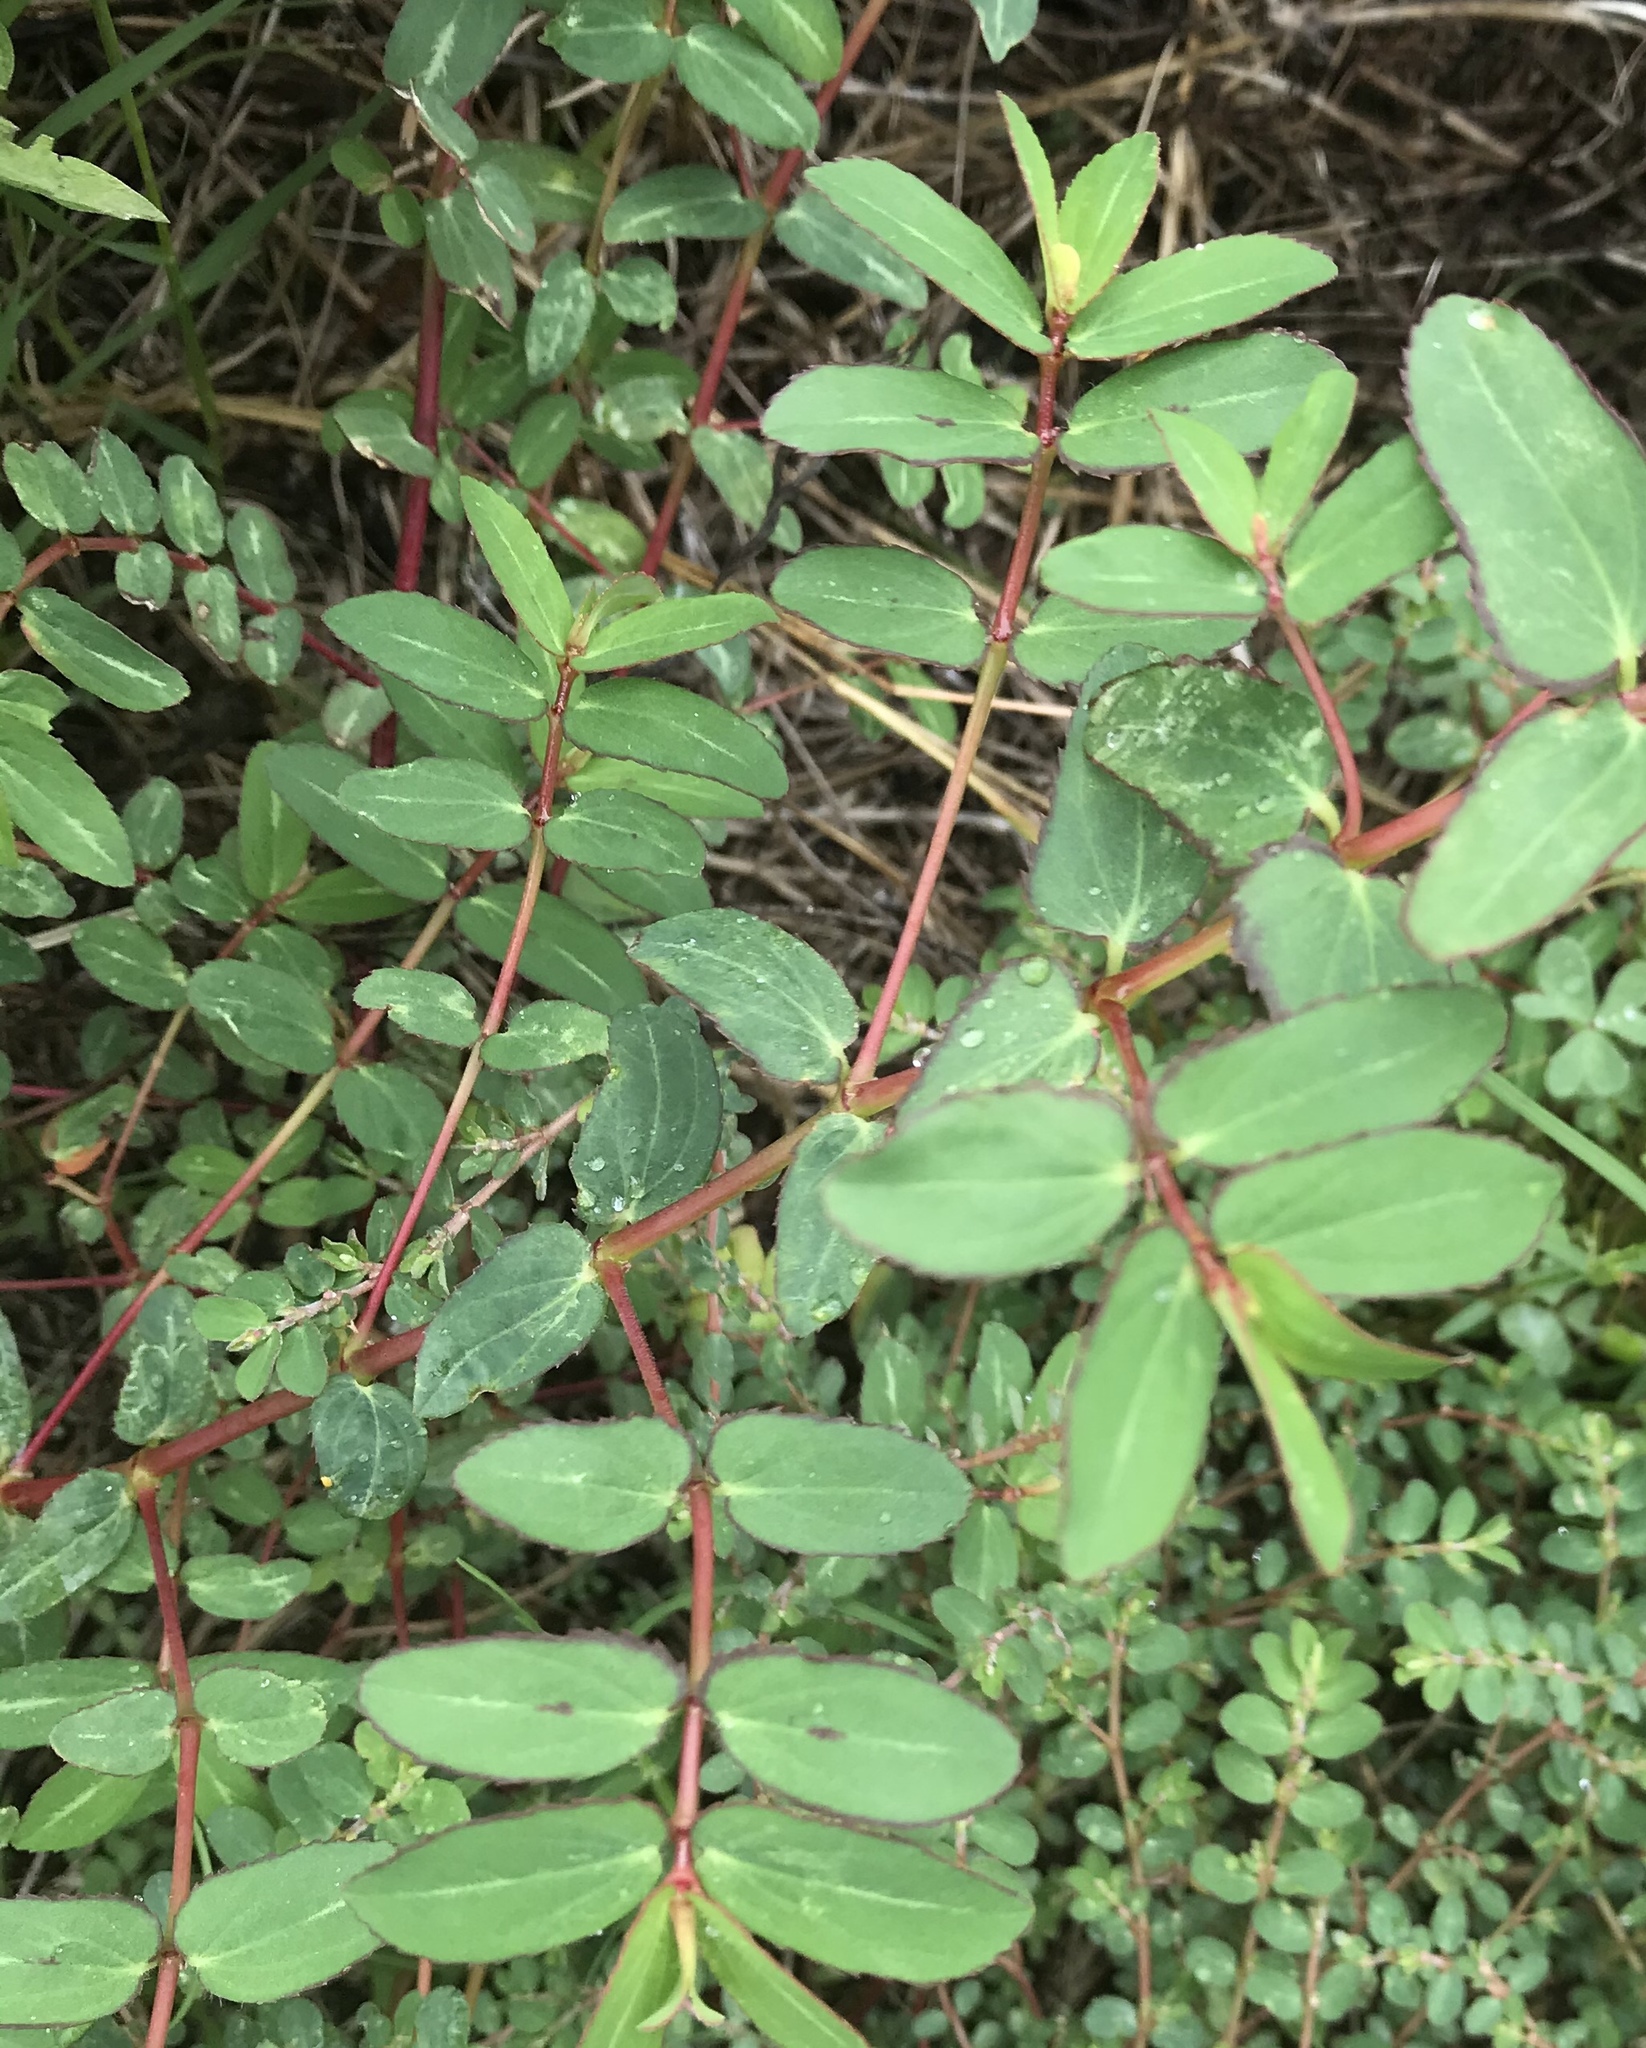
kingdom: Plantae
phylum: Tracheophyta
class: Magnoliopsida
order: Malpighiales
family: Euphorbiaceae
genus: Euphorbia
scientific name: Euphorbia nutans
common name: Eyebane
